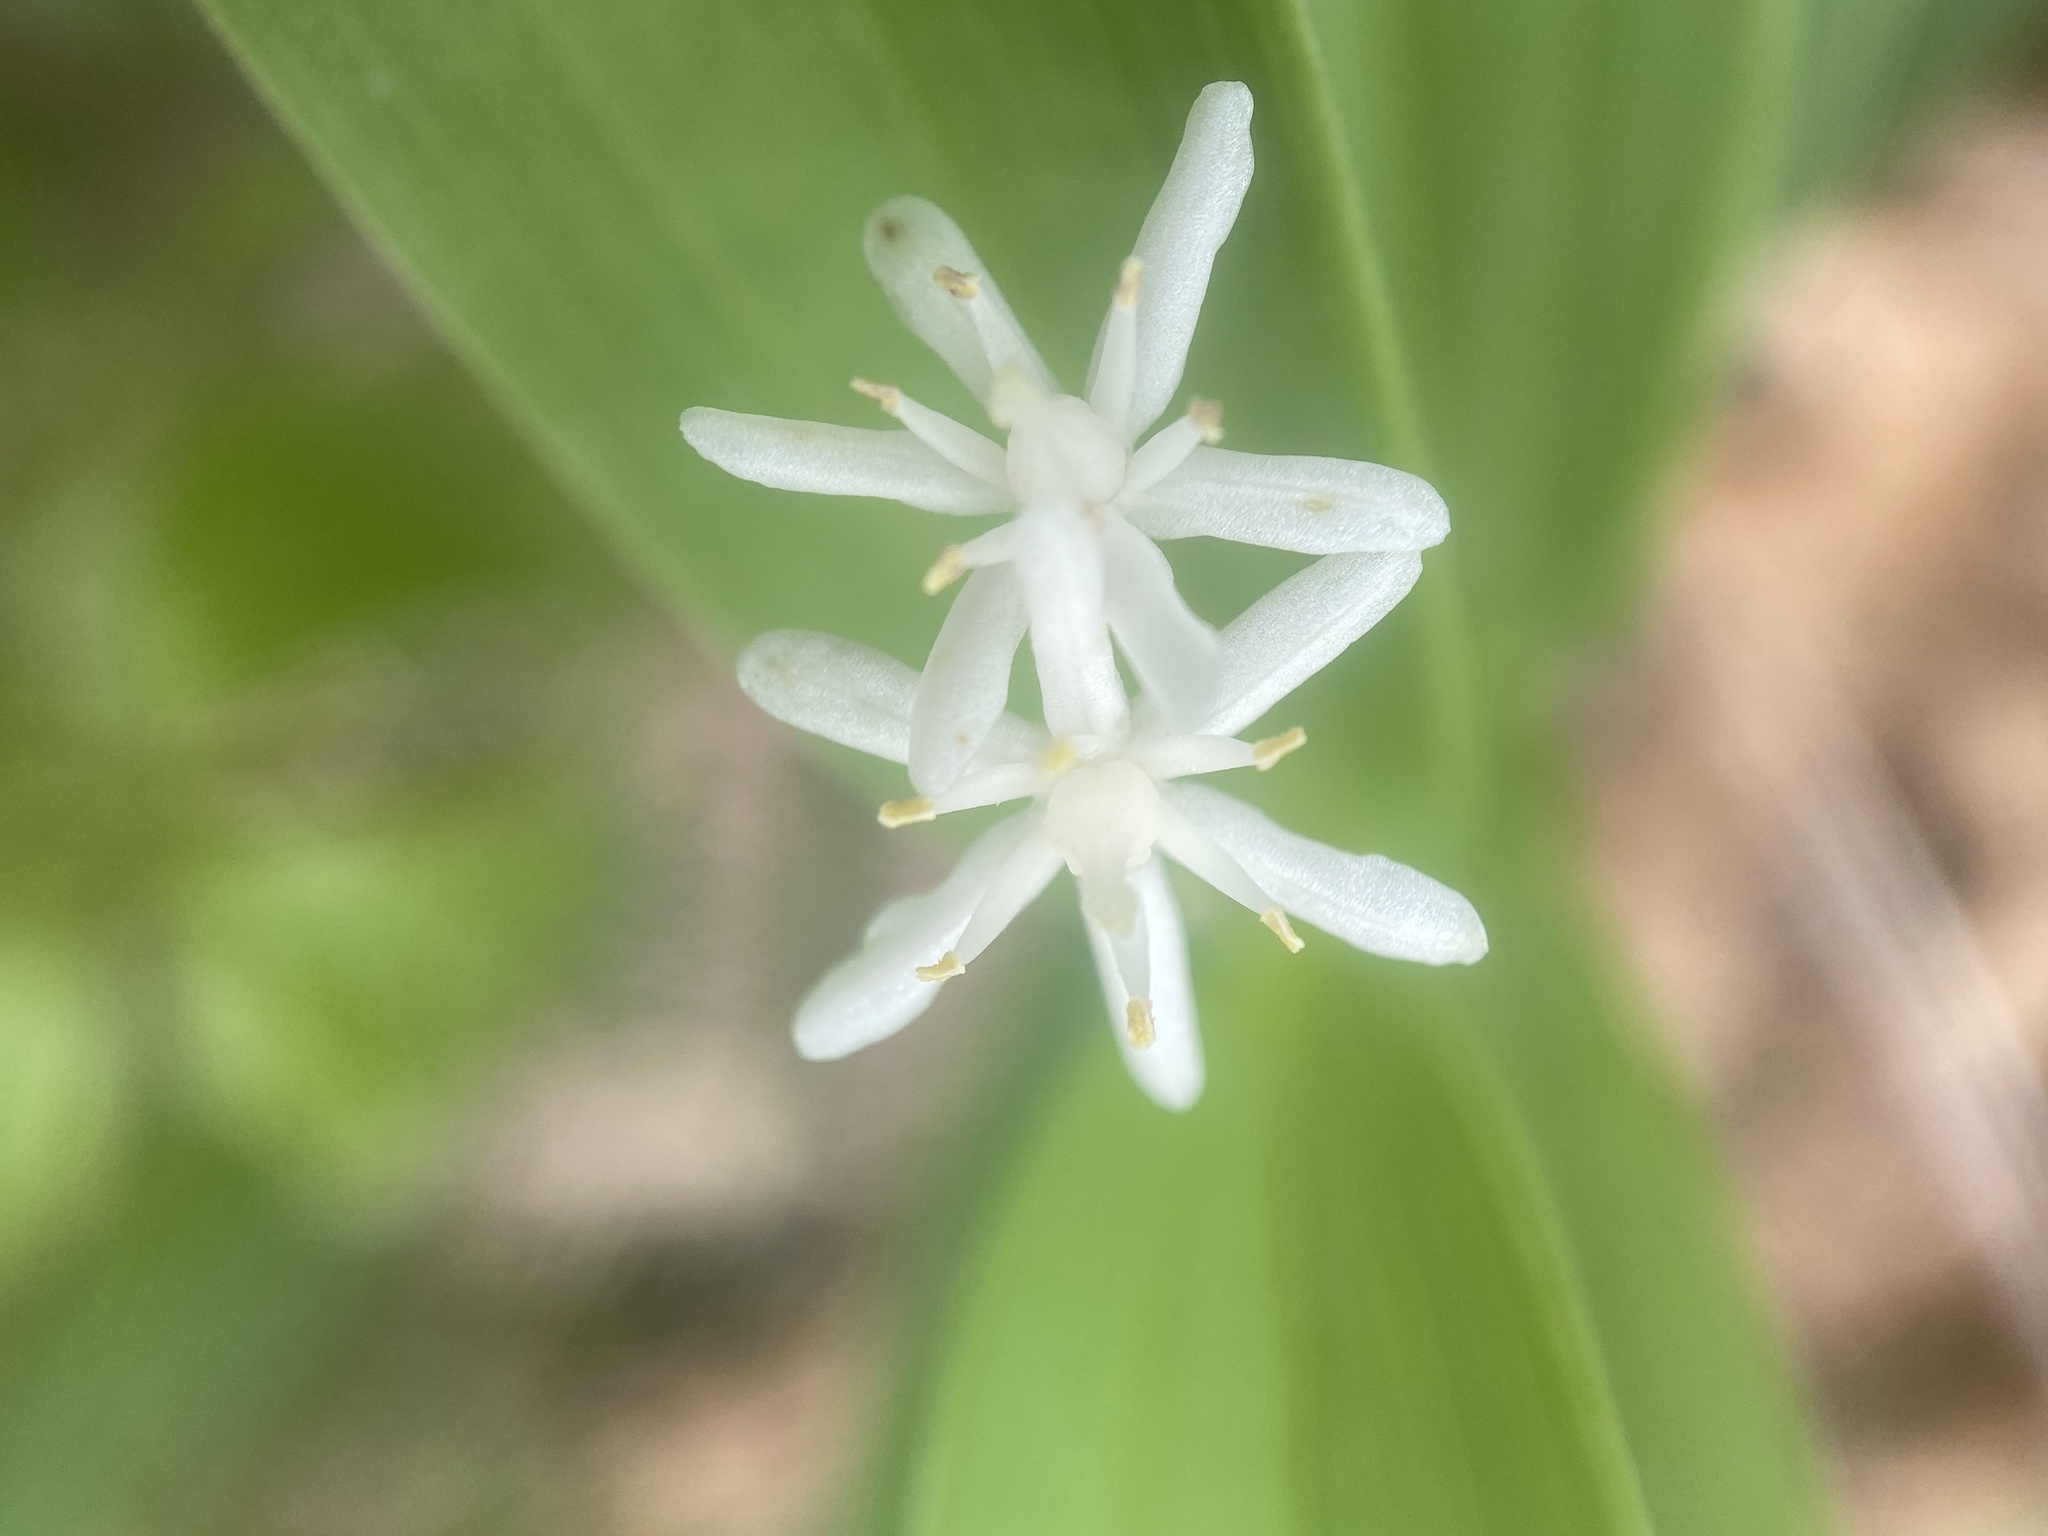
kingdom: Plantae
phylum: Tracheophyta
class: Liliopsida
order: Asparagales
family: Asparagaceae
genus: Maianthemum
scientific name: Maianthemum stellatum
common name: Little false solomon's seal
